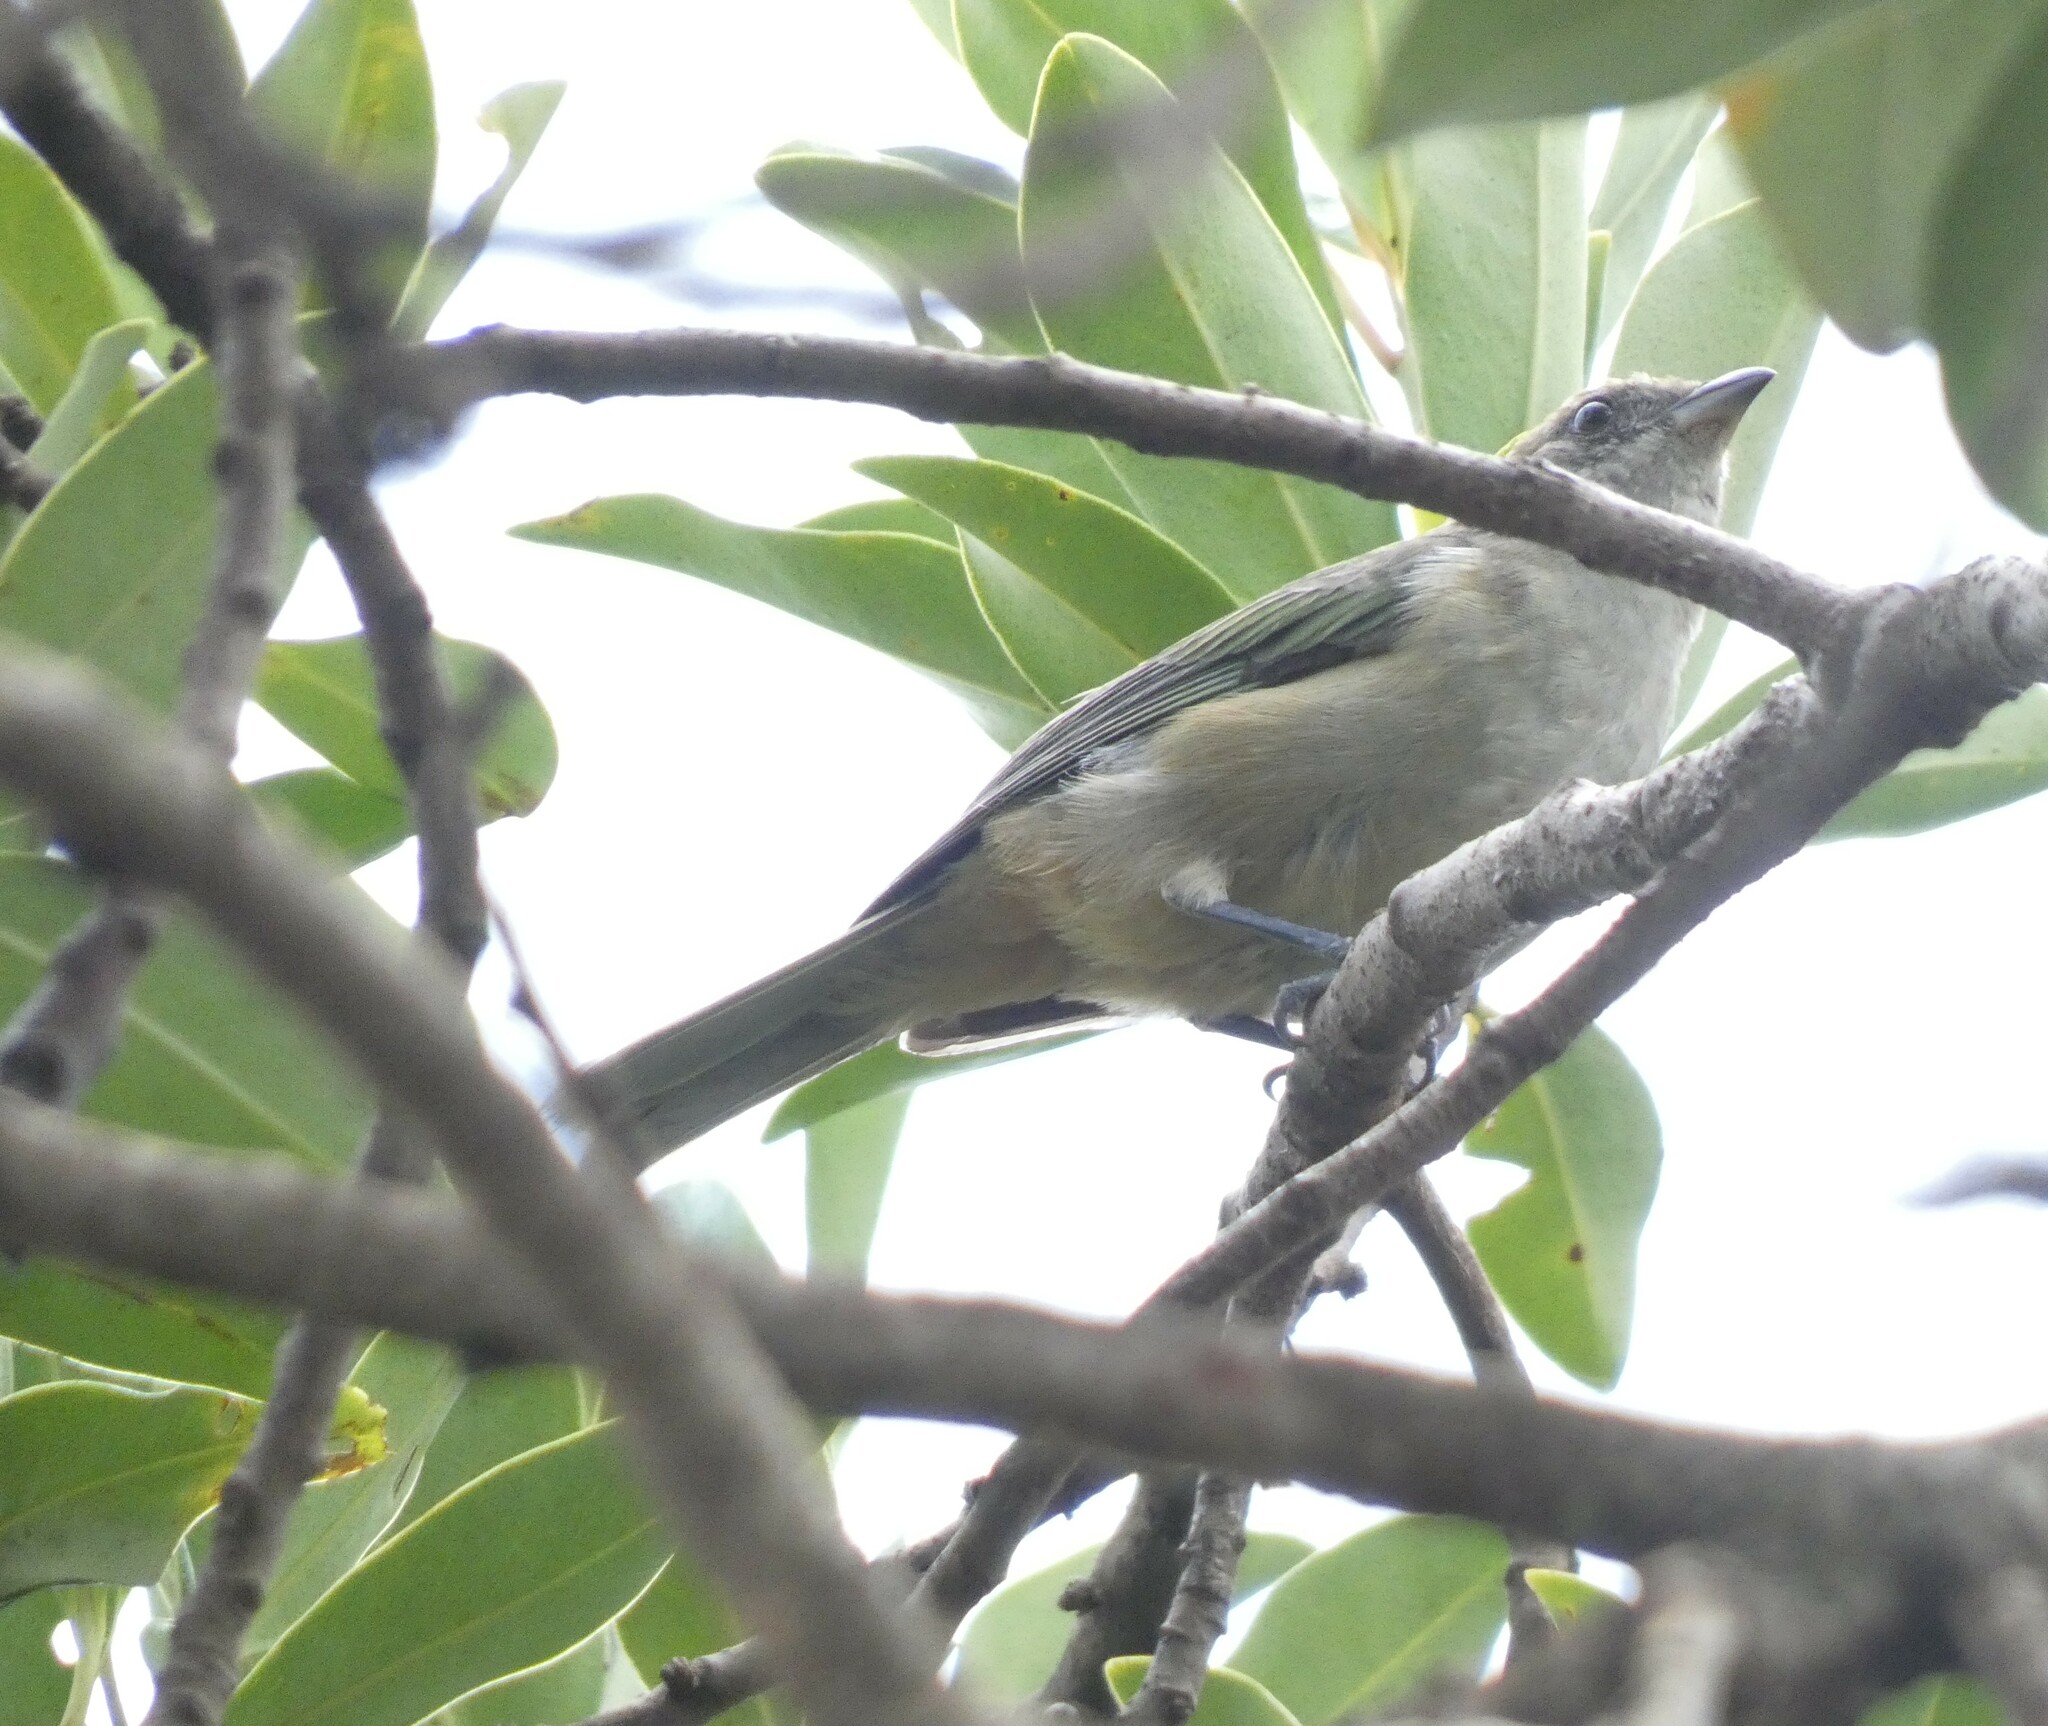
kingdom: Animalia
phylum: Chordata
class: Aves
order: Passeriformes
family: Thraupidae
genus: Stilpnia
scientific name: Stilpnia cayana
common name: Burnished-buff tanager
